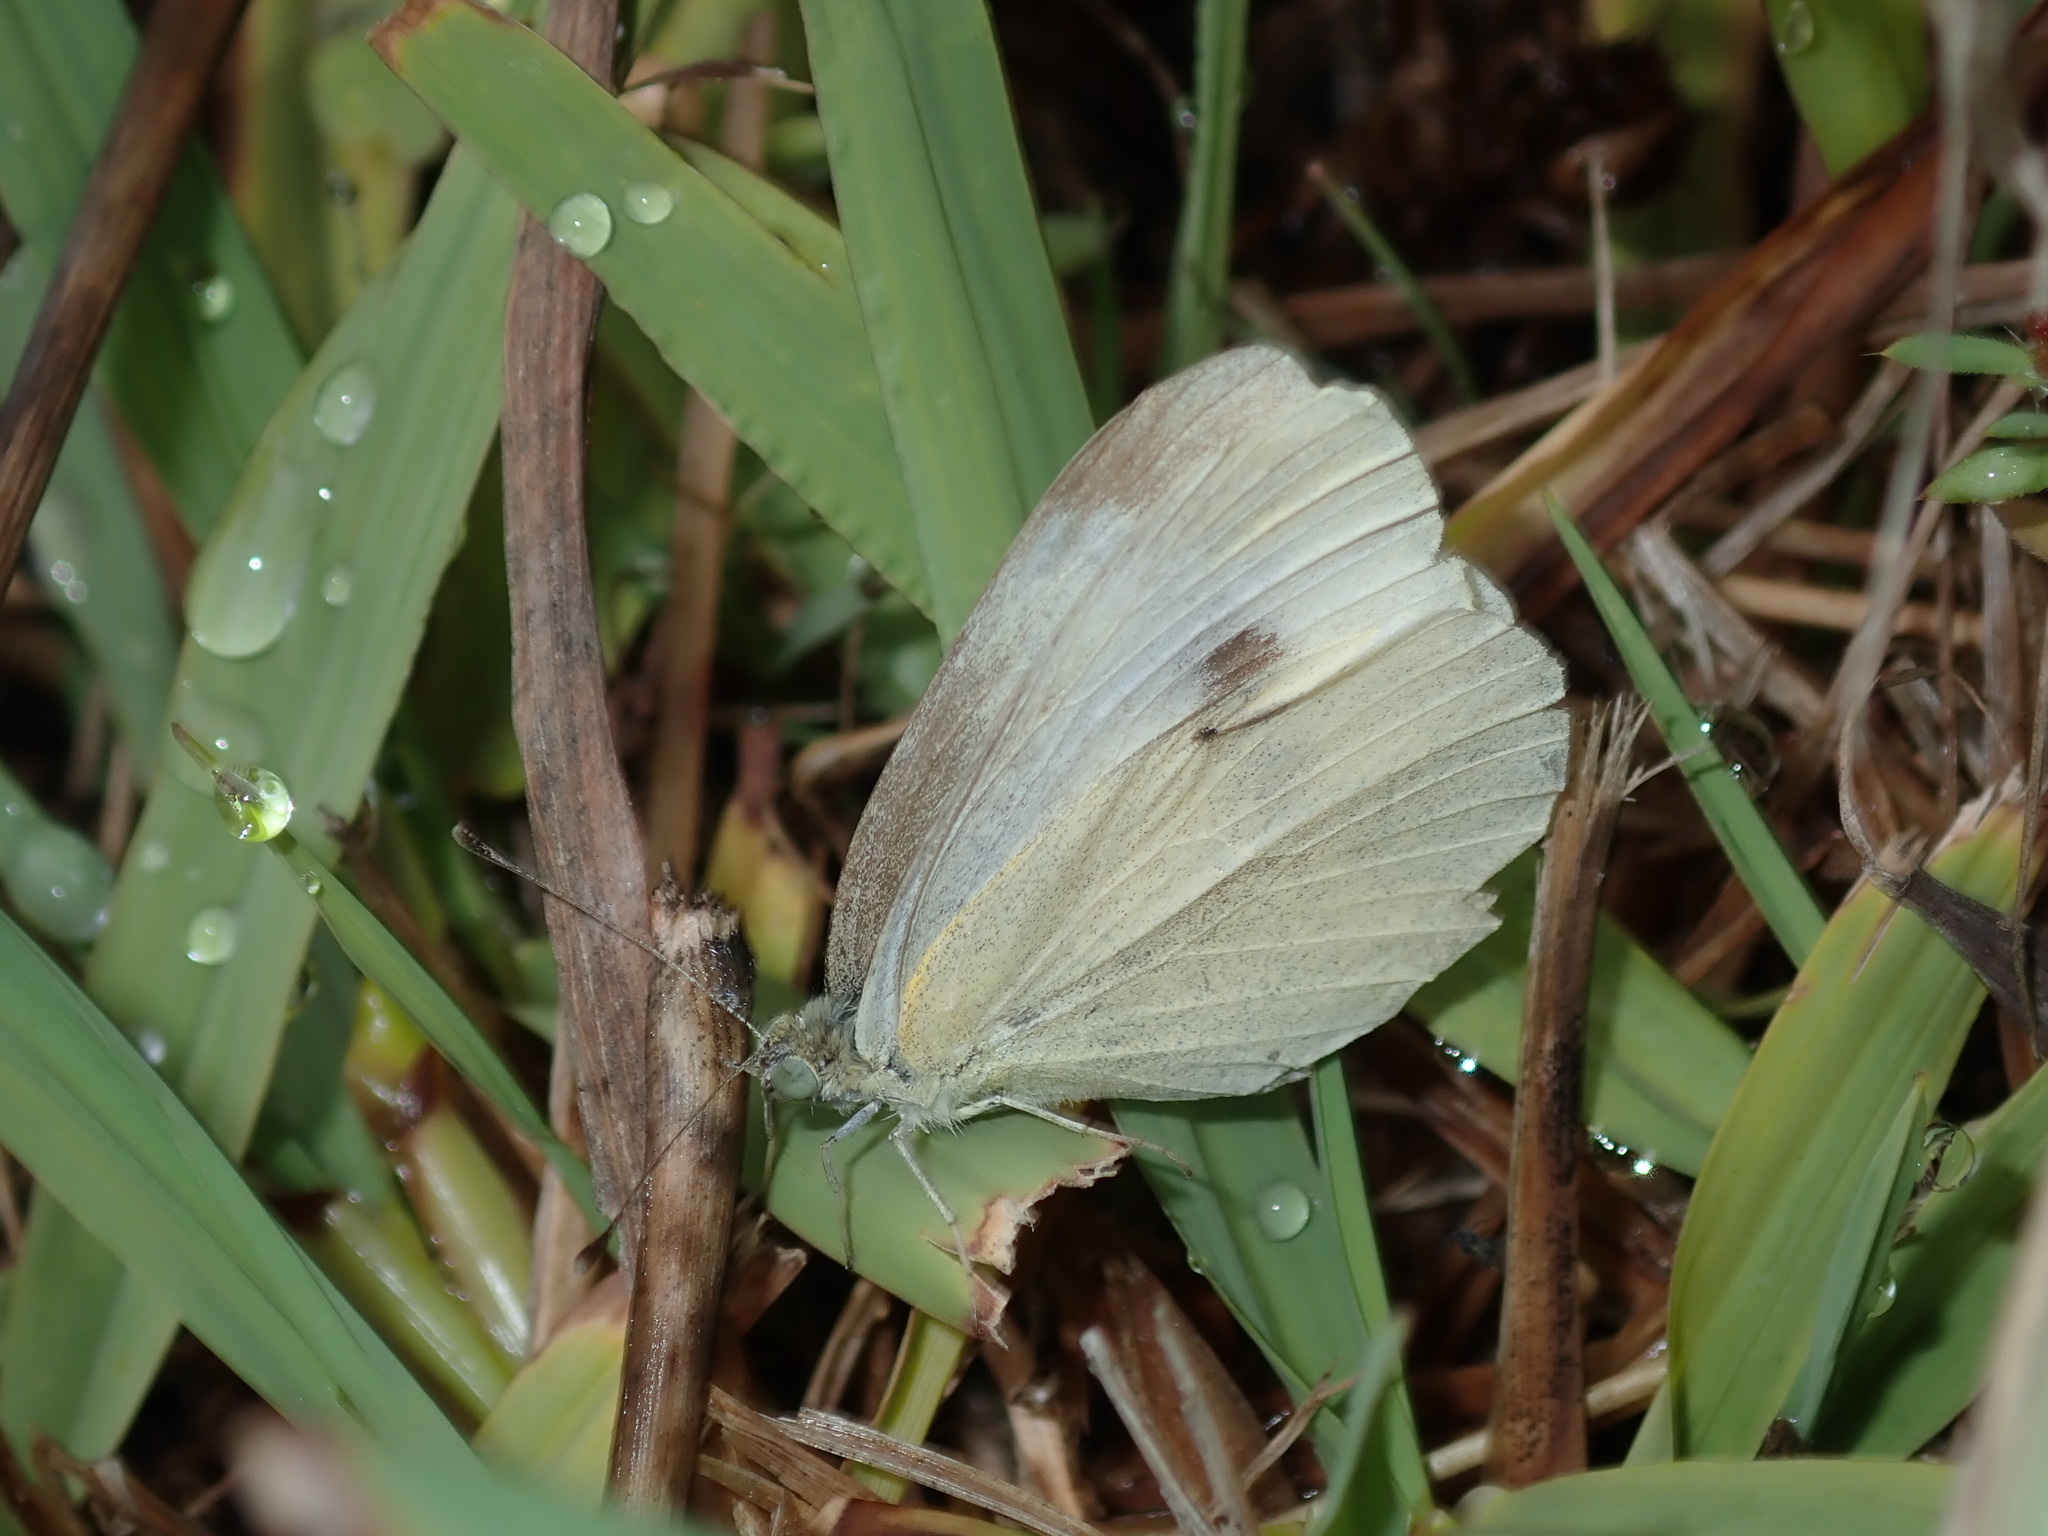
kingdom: Animalia
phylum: Arthropoda
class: Insecta
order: Lepidoptera
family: Pieridae
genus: Pieris
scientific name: Pieris rapae
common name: Small white
